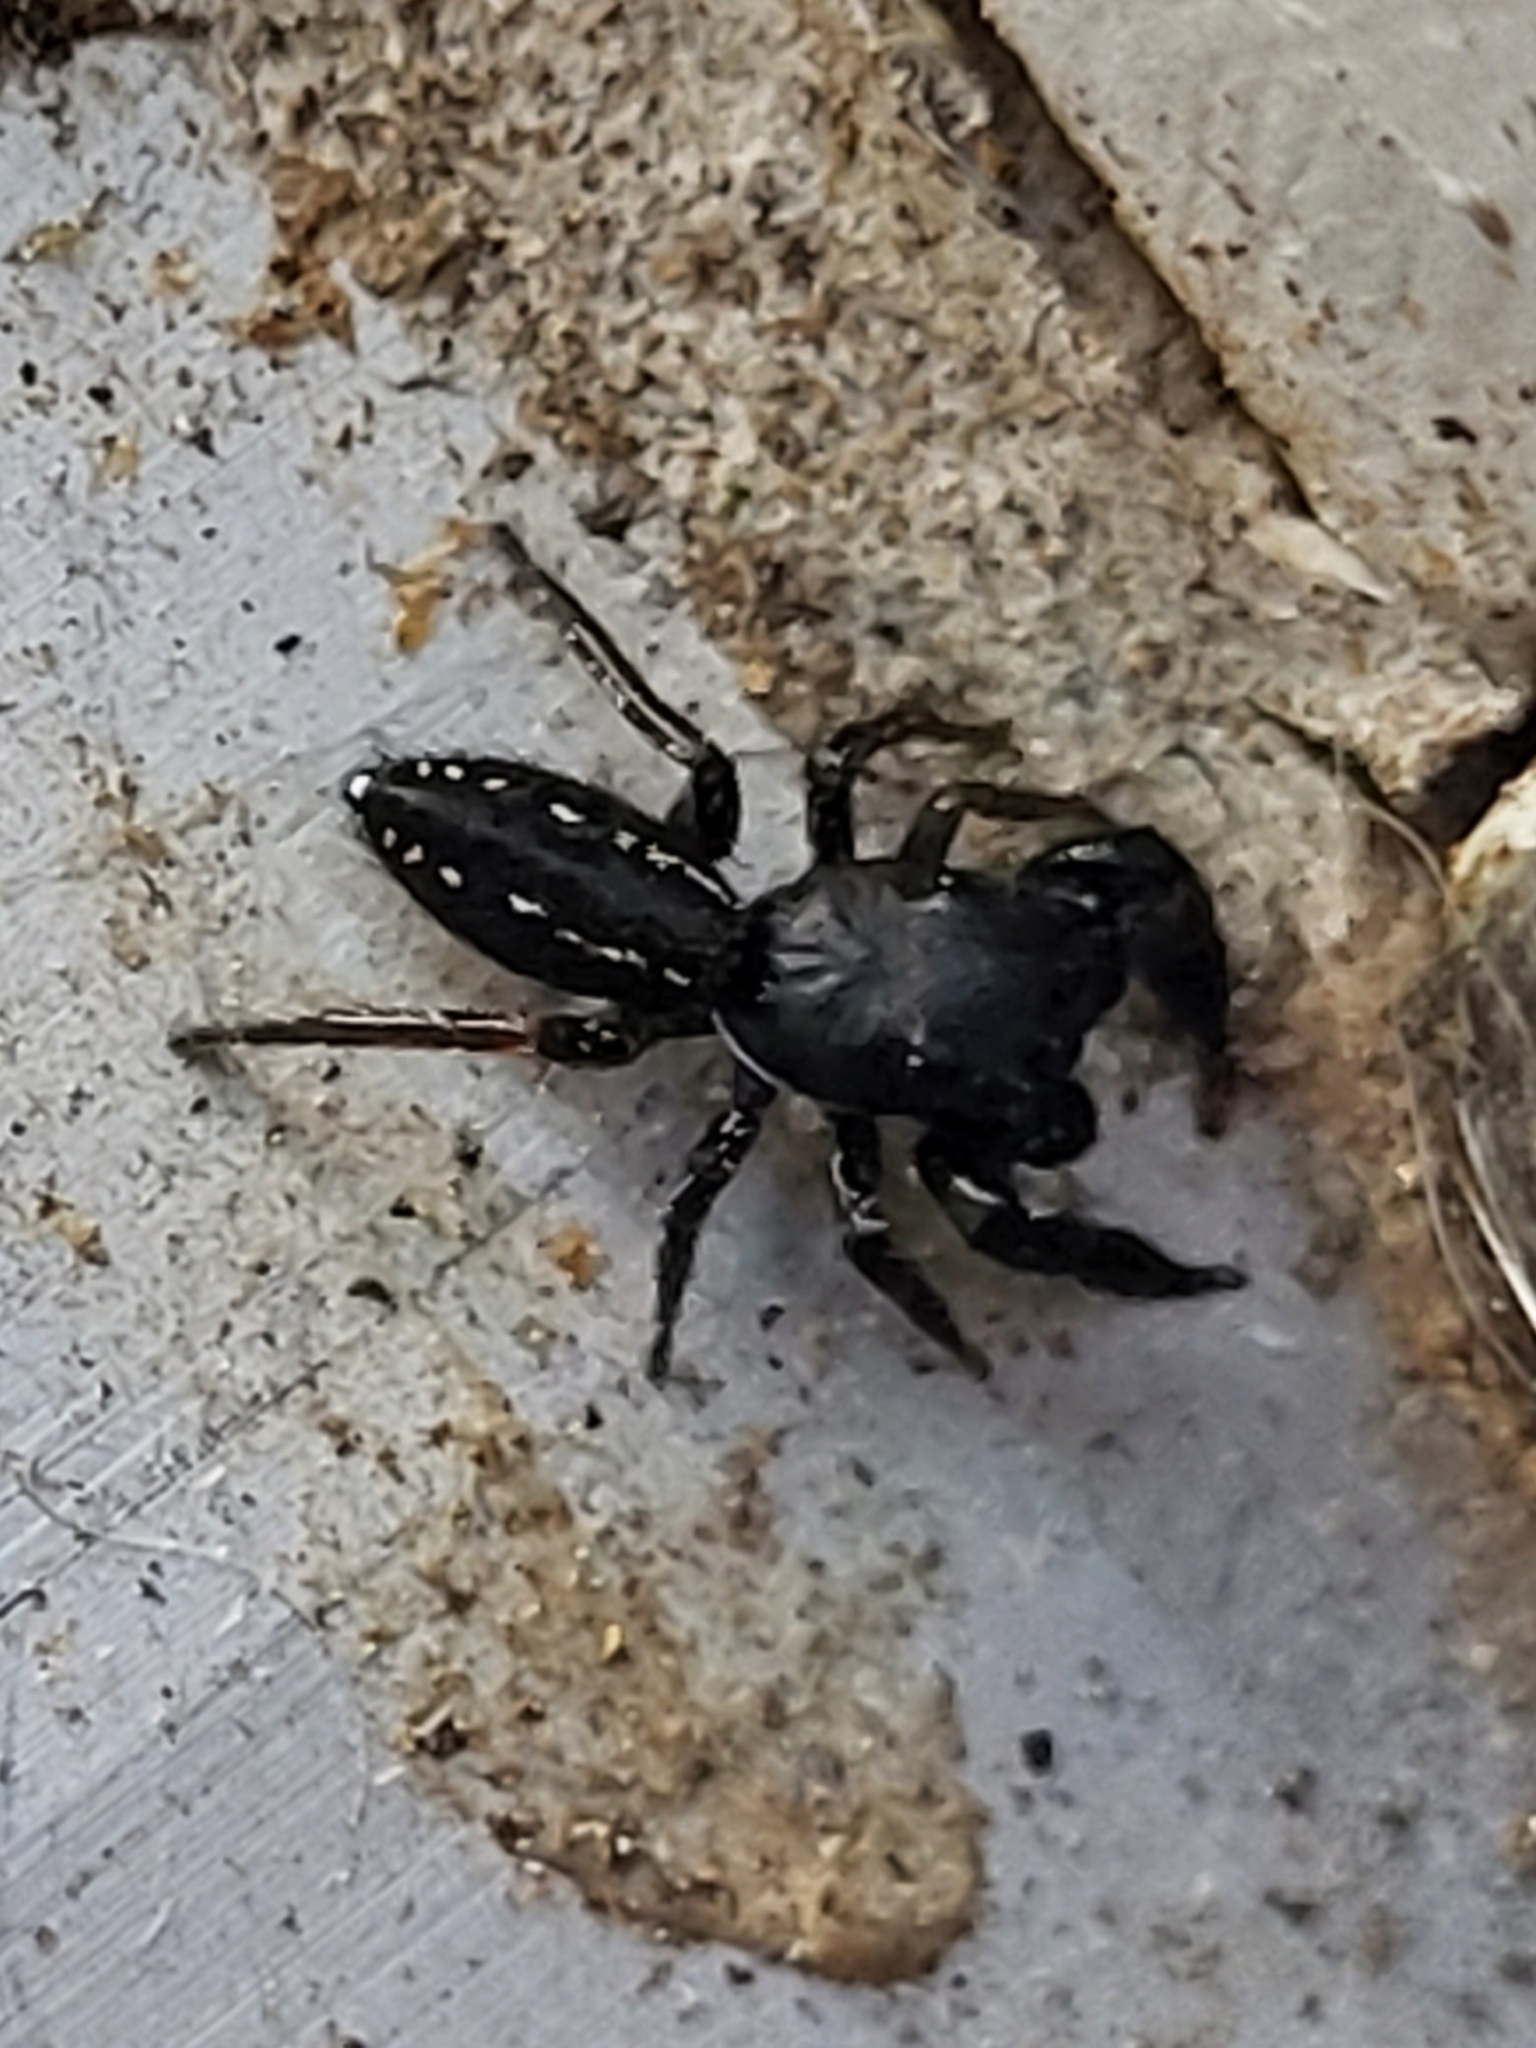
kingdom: Animalia
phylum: Arthropoda
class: Arachnida
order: Araneae
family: Salticidae
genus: Metacyrba
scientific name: Metacyrba taeniola
